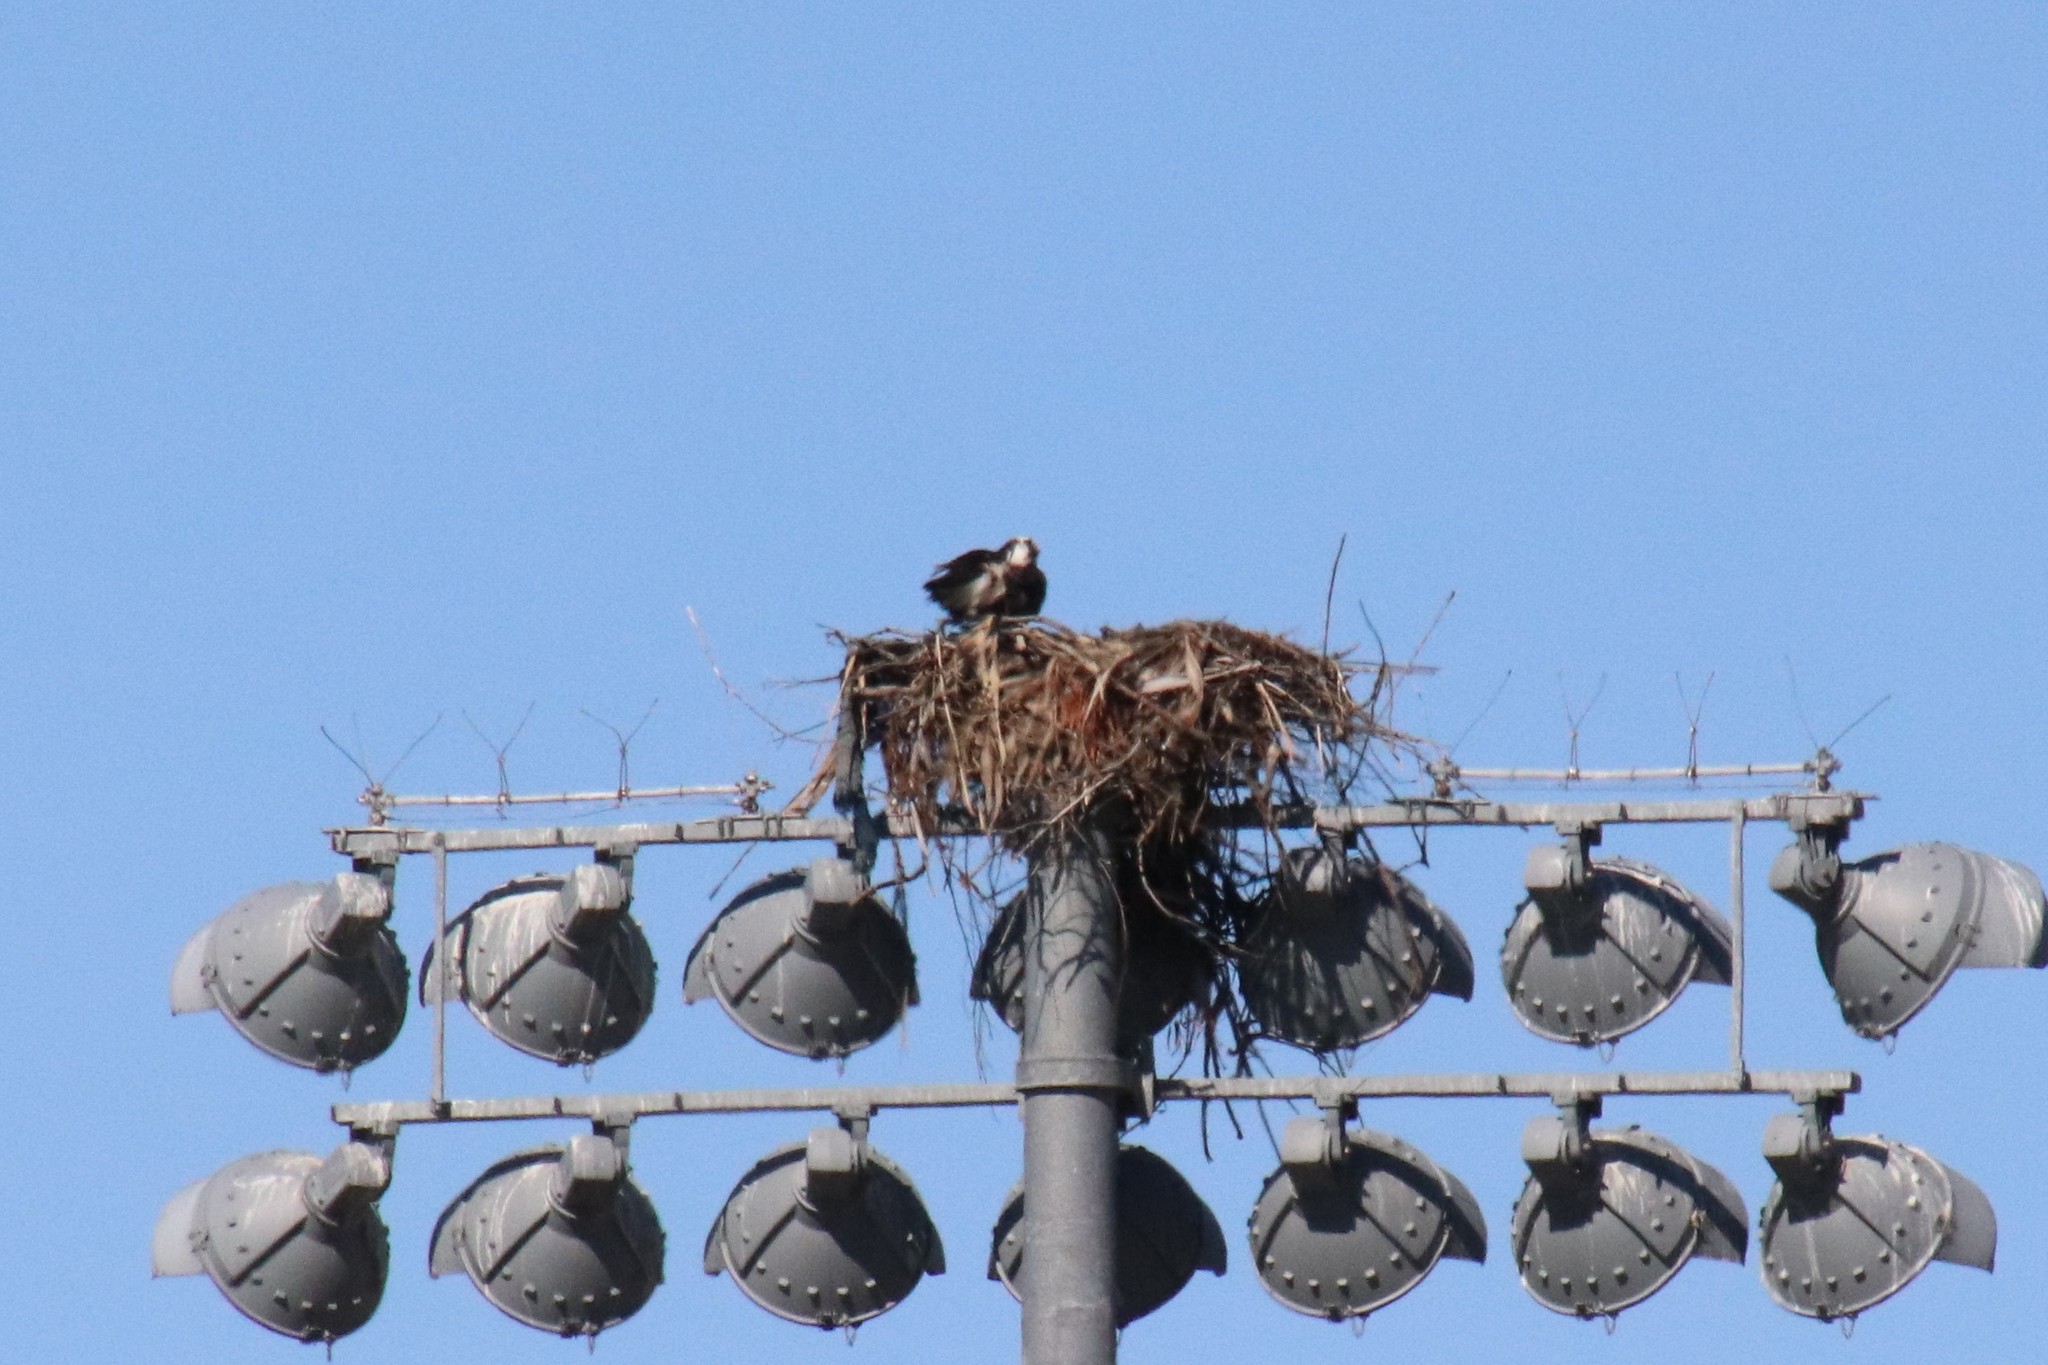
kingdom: Animalia
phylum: Chordata
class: Aves
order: Accipitriformes
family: Pandionidae
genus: Pandion
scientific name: Pandion haliaetus
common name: Osprey
